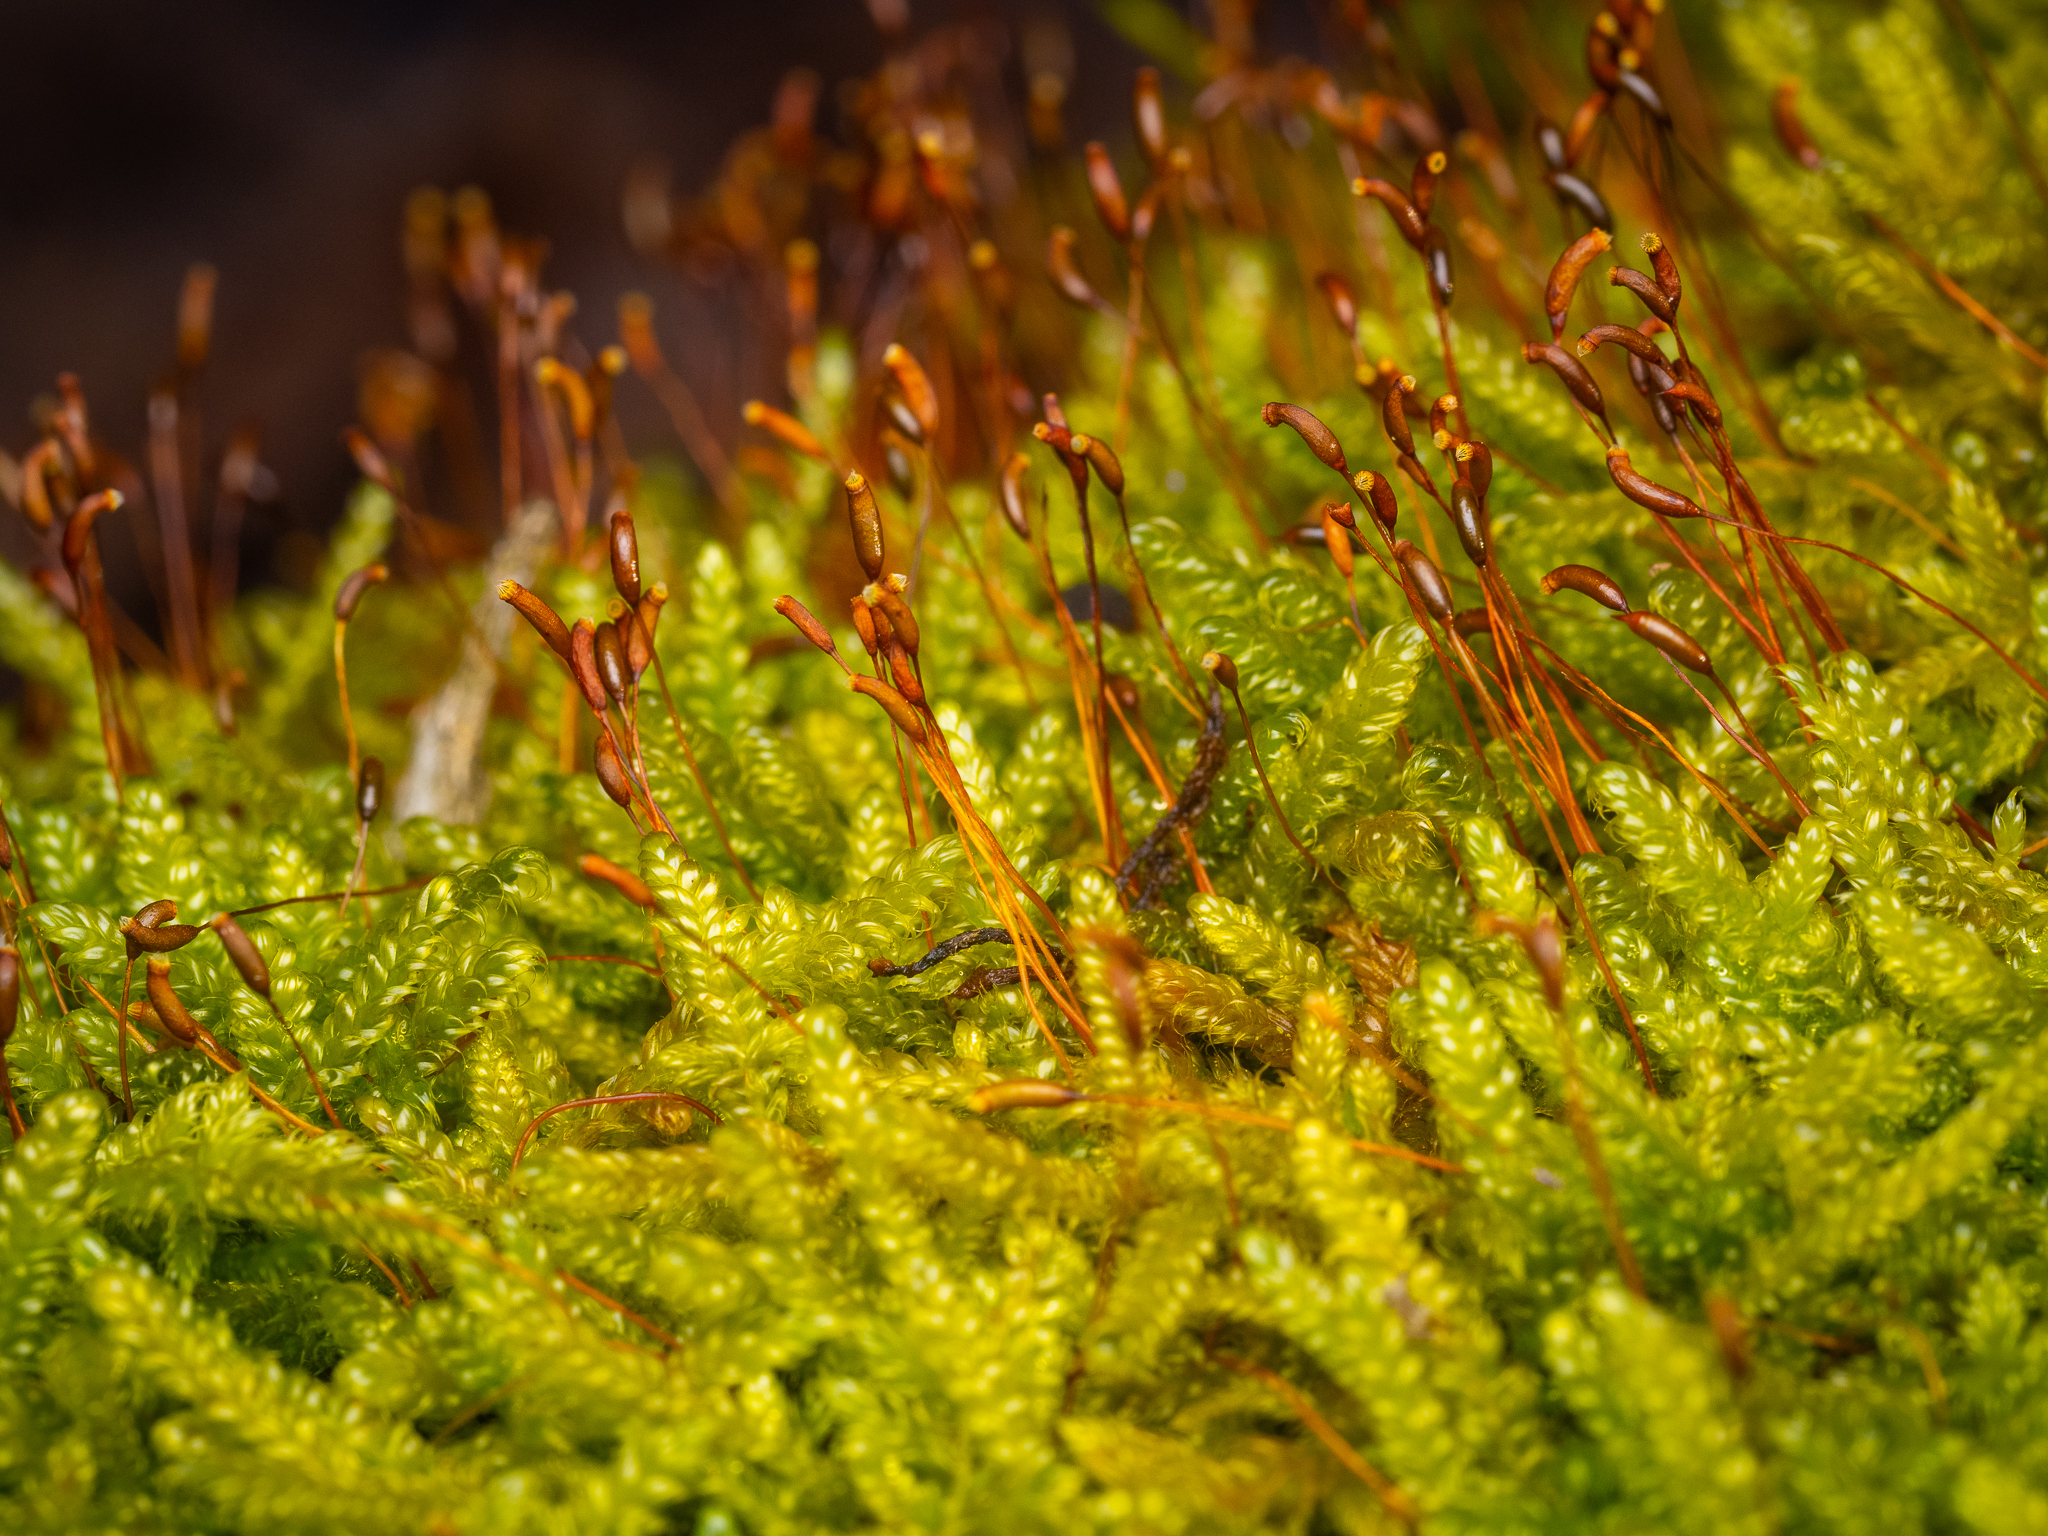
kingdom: Plantae
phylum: Bryophyta
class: Bryopsida
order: Hypnales
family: Hypnaceae
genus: Hypnum
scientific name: Hypnum cupressiforme
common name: Cypress-leaved plait-moss
